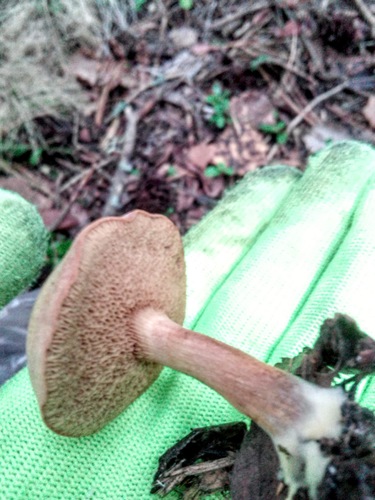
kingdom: Fungi
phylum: Basidiomycota
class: Agaricomycetes
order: Boletales
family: Boletaceae
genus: Chalciporus
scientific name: Chalciporus piperatus
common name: Peppery bolete
